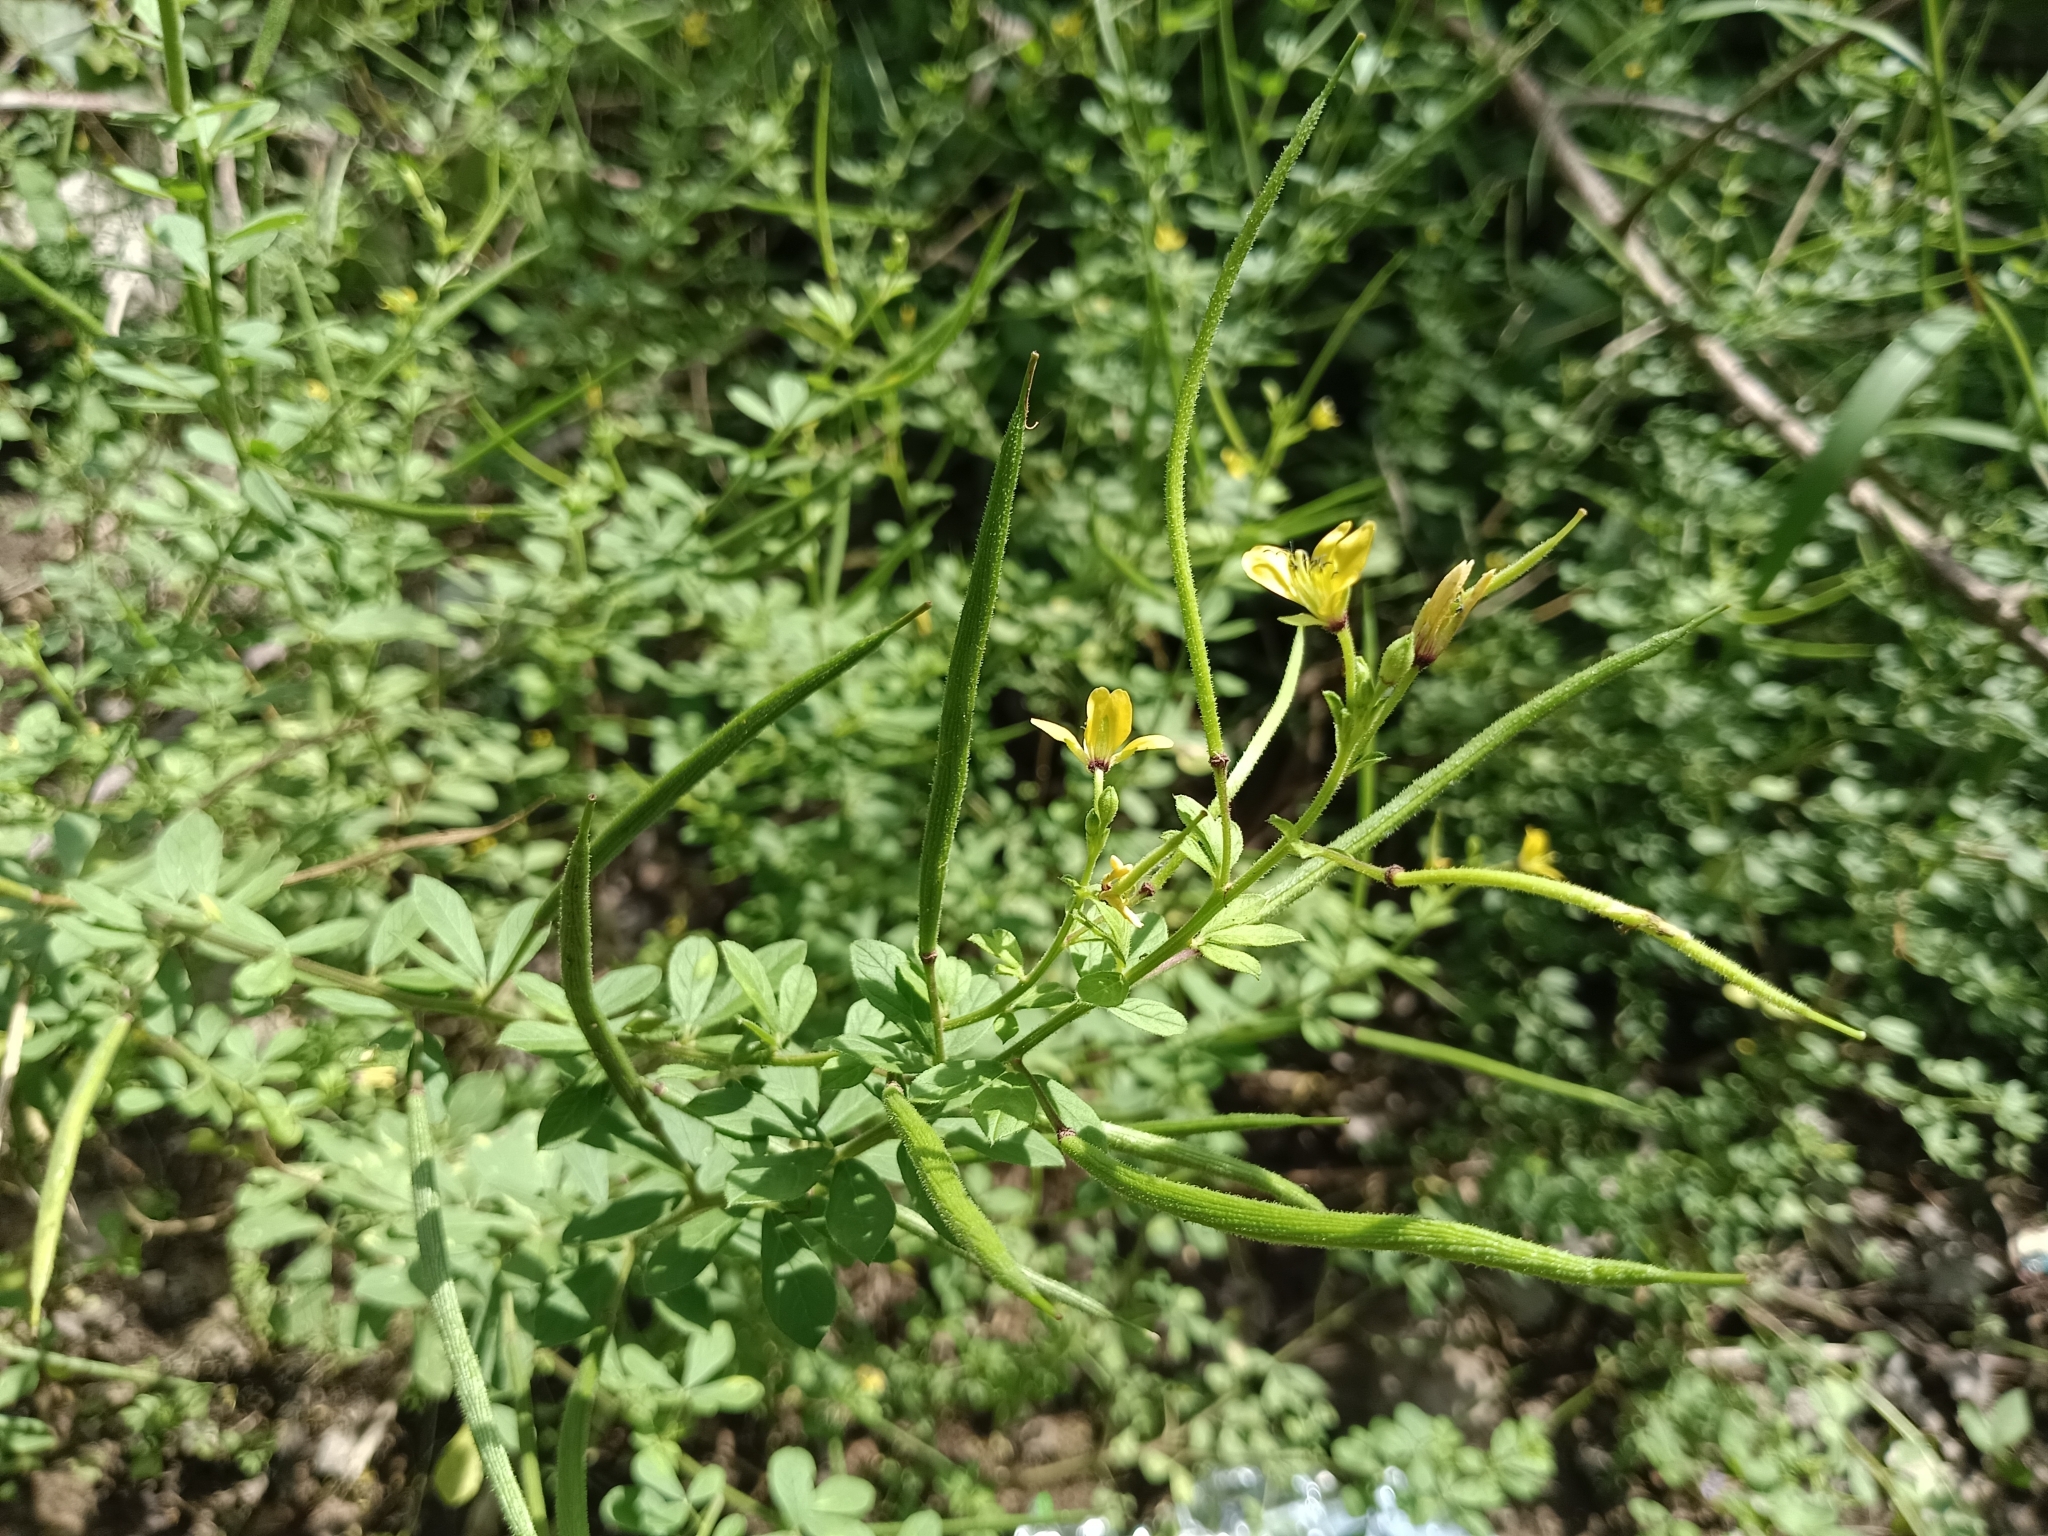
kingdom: Plantae
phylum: Tracheophyta
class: Magnoliopsida
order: Brassicales
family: Cleomaceae
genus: Arivela
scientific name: Arivela viscosa
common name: Asian spiderflower
